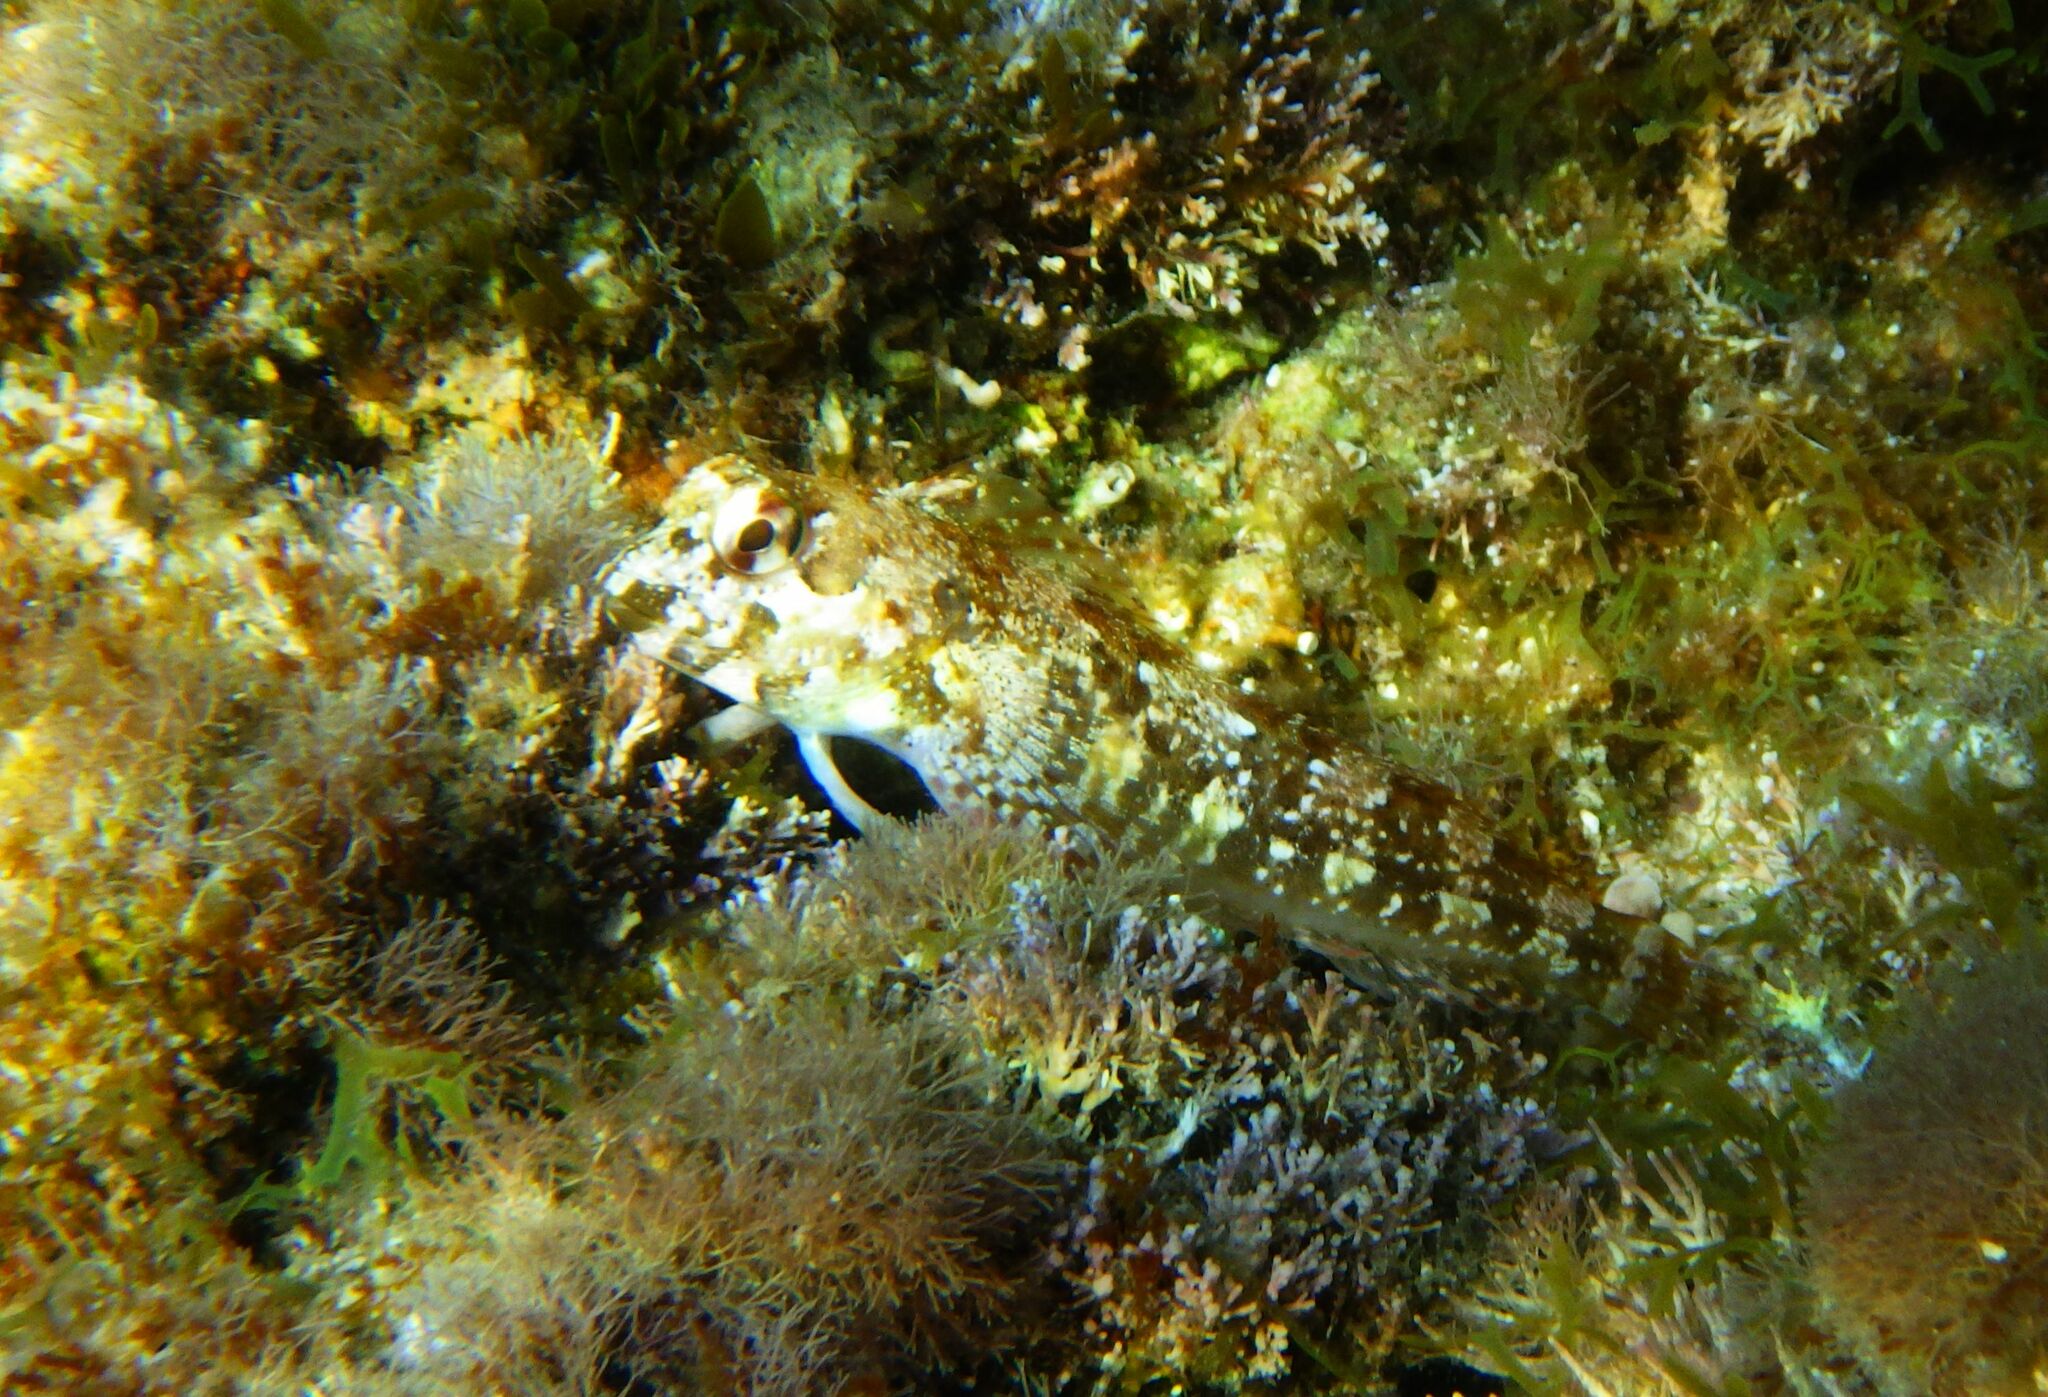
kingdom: Animalia
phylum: Chordata
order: Perciformes
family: Blenniidae
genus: Lipophrys
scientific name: Lipophrys trigloides
